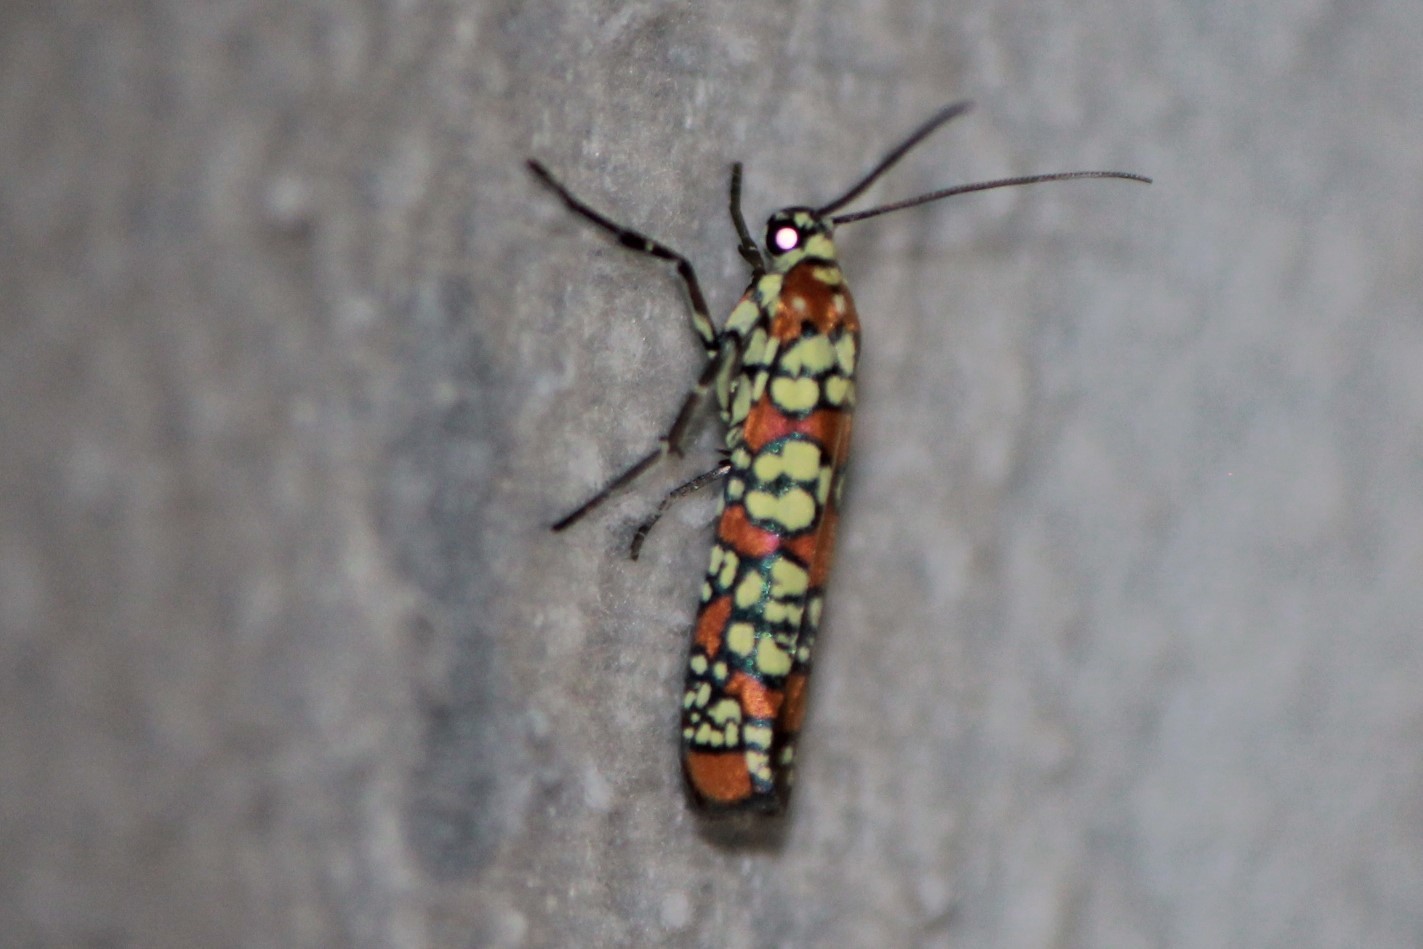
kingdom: Animalia
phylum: Arthropoda
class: Insecta
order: Lepidoptera
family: Attevidae
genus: Atteva
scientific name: Atteva punctella
